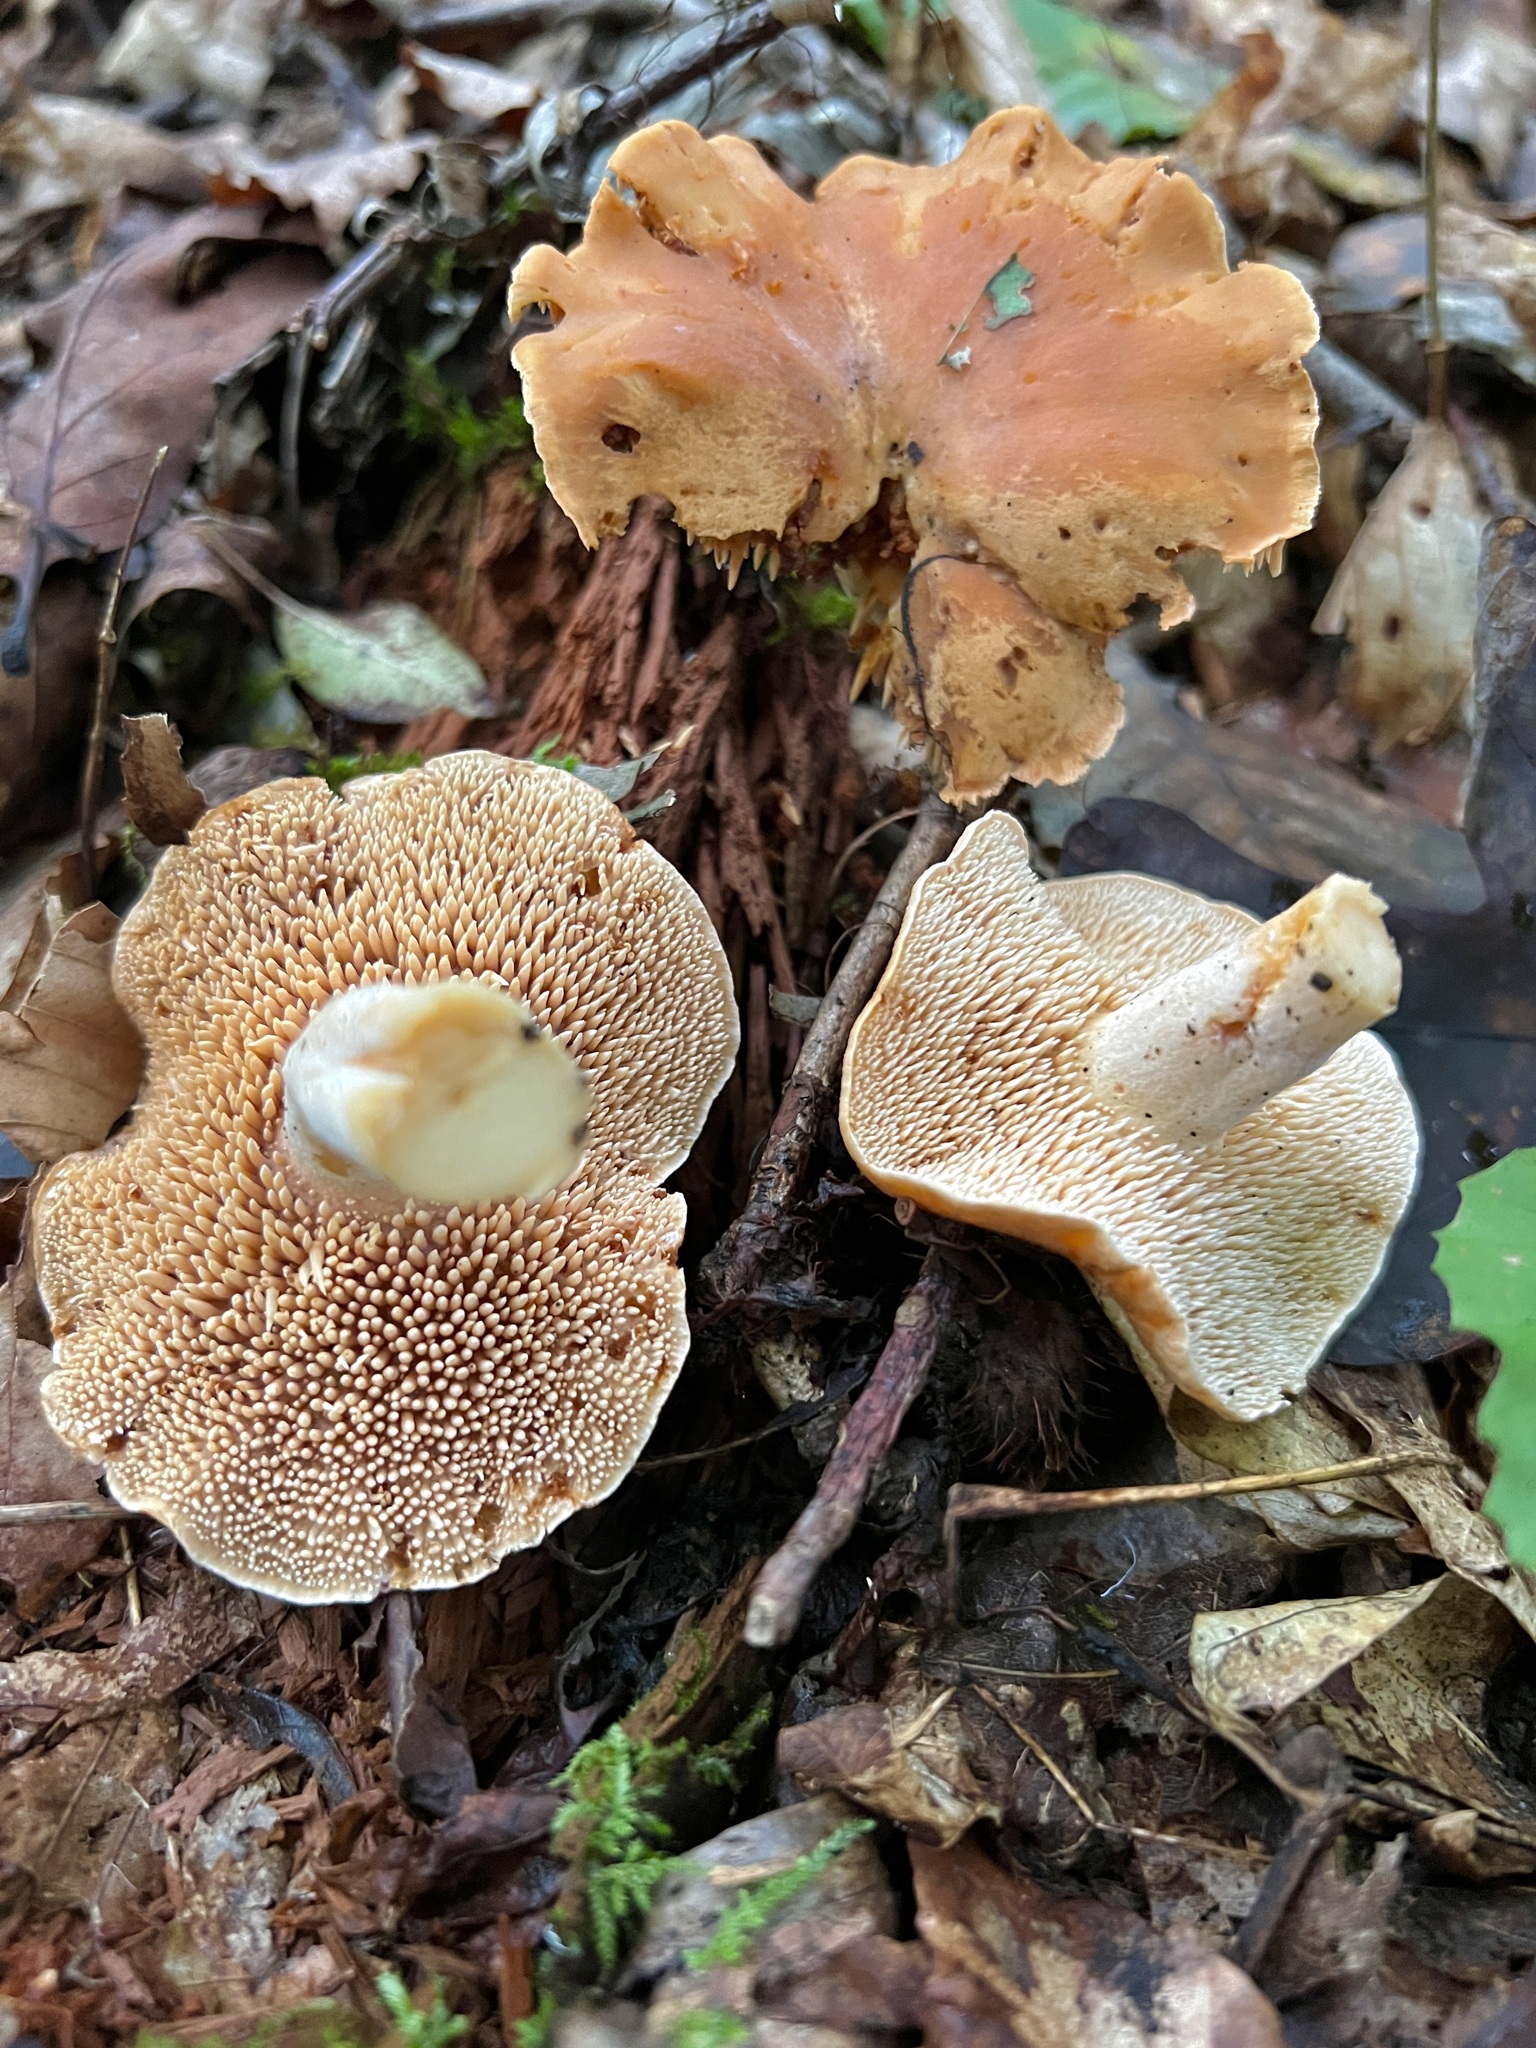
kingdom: Fungi
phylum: Basidiomycota
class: Agaricomycetes
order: Cantharellales
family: Hydnaceae
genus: Hydnum
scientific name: Hydnum umbilicatum
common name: Umbilicate hedgehog
